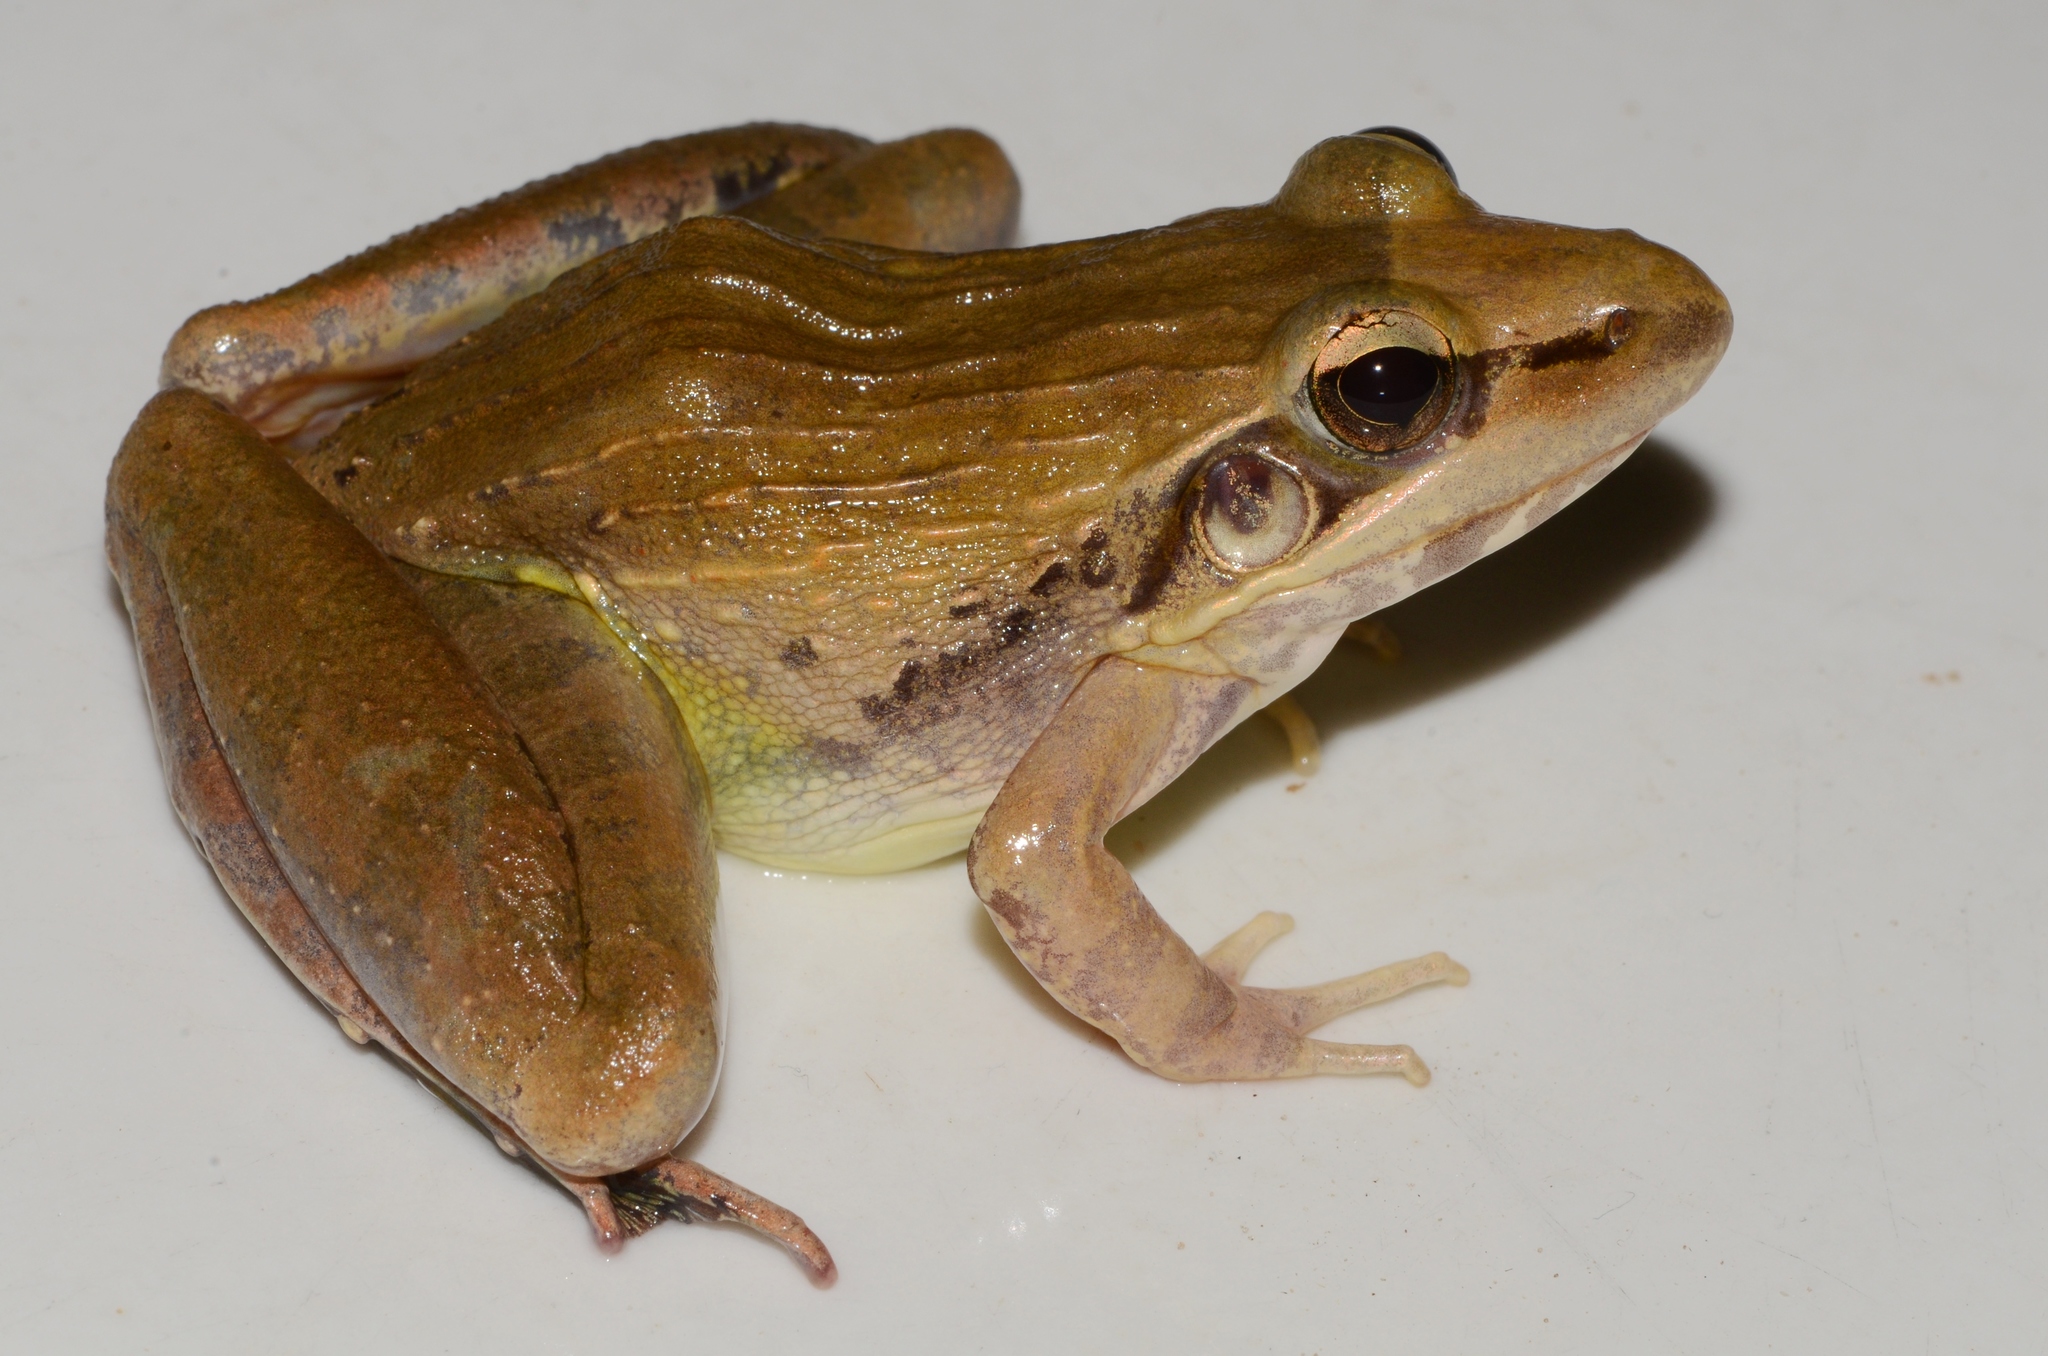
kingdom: Animalia
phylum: Chordata
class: Amphibia
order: Anura
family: Ptychadenidae
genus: Ptychadena
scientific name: Ptychadena anchietae
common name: Anchieta's ridged frog
